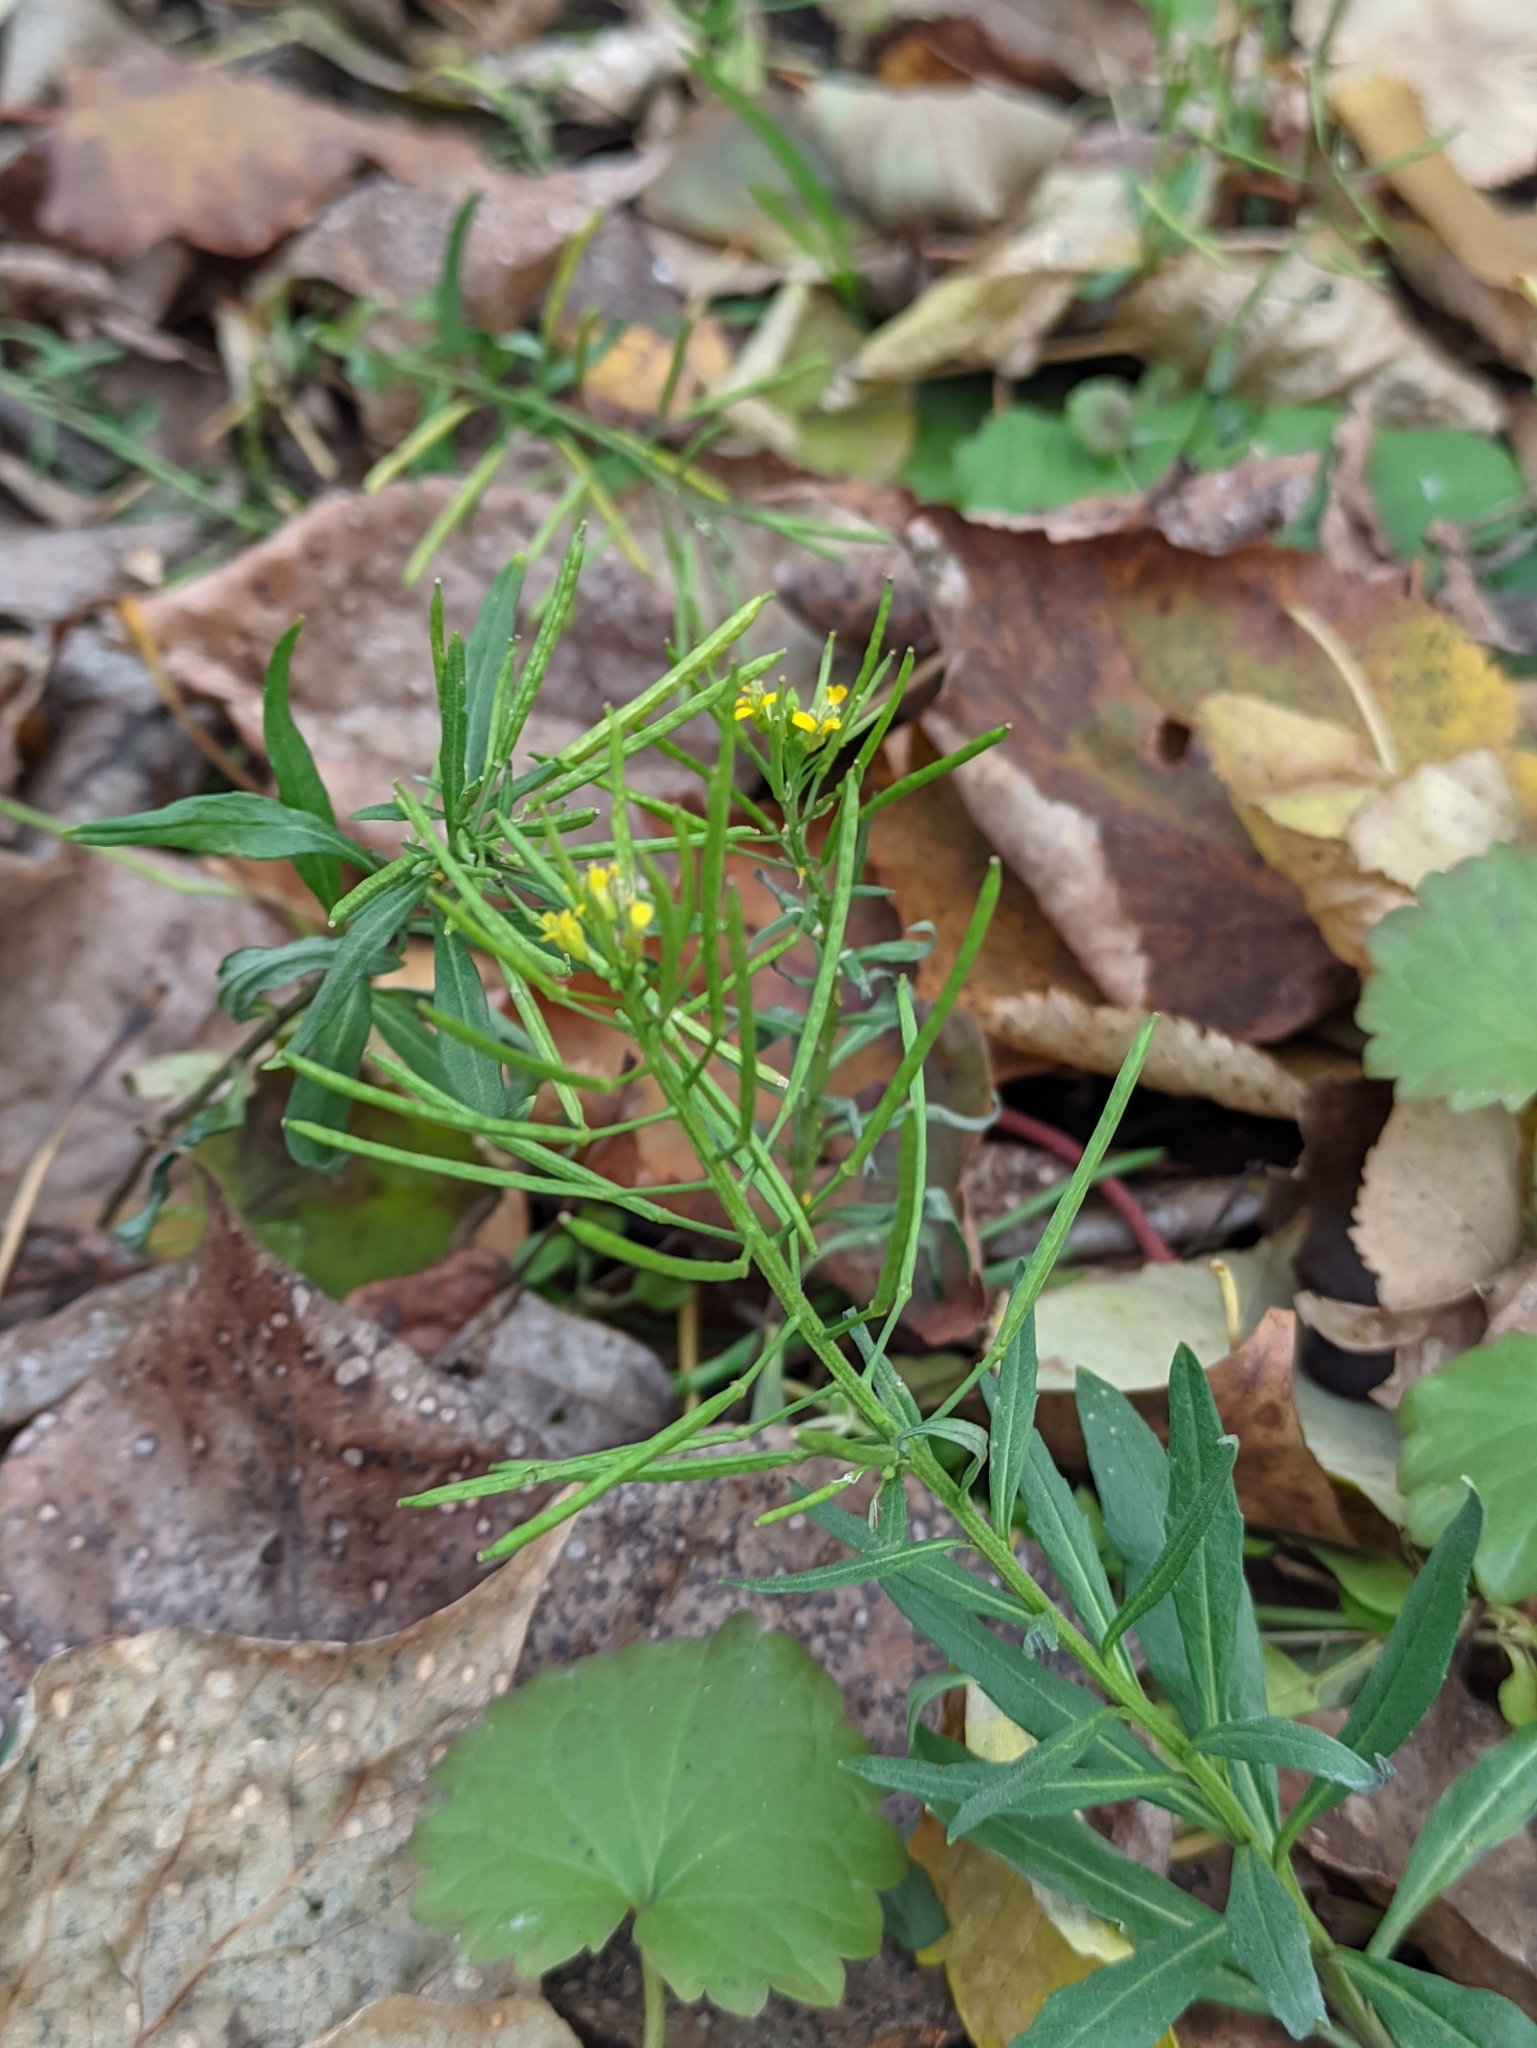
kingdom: Plantae
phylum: Tracheophyta
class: Magnoliopsida
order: Brassicales
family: Brassicaceae
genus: Erysimum
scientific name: Erysimum cheiranthoides
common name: Treacle mustard
